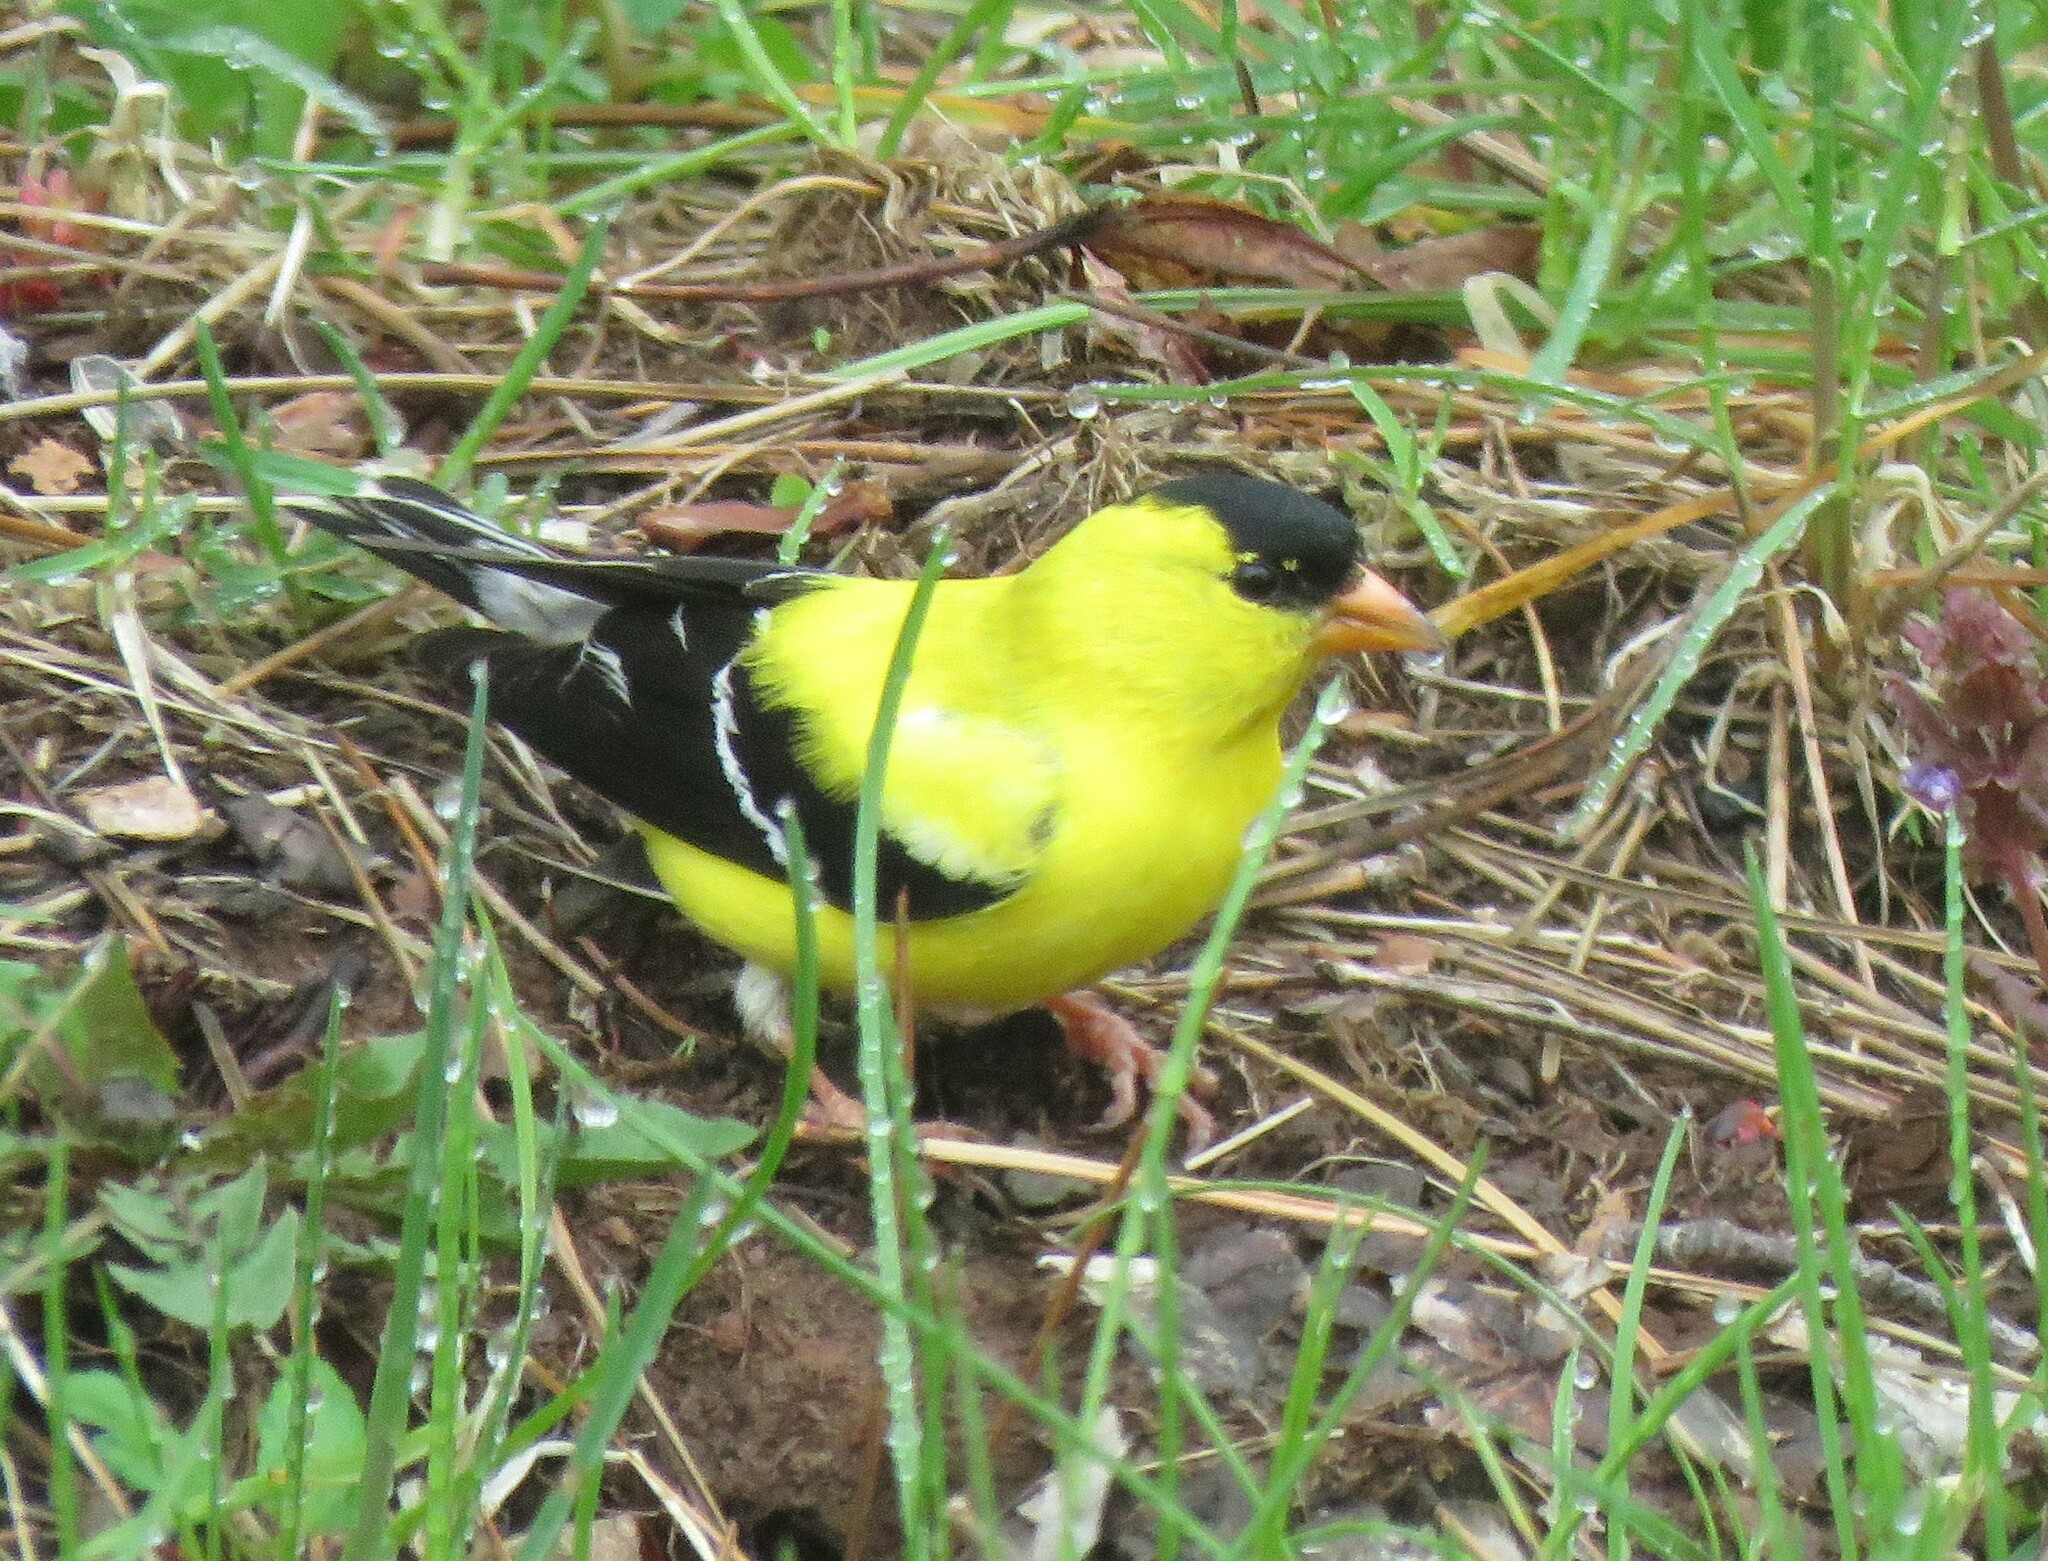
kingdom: Animalia
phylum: Chordata
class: Aves
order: Passeriformes
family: Fringillidae
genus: Spinus
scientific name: Spinus tristis
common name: American goldfinch
